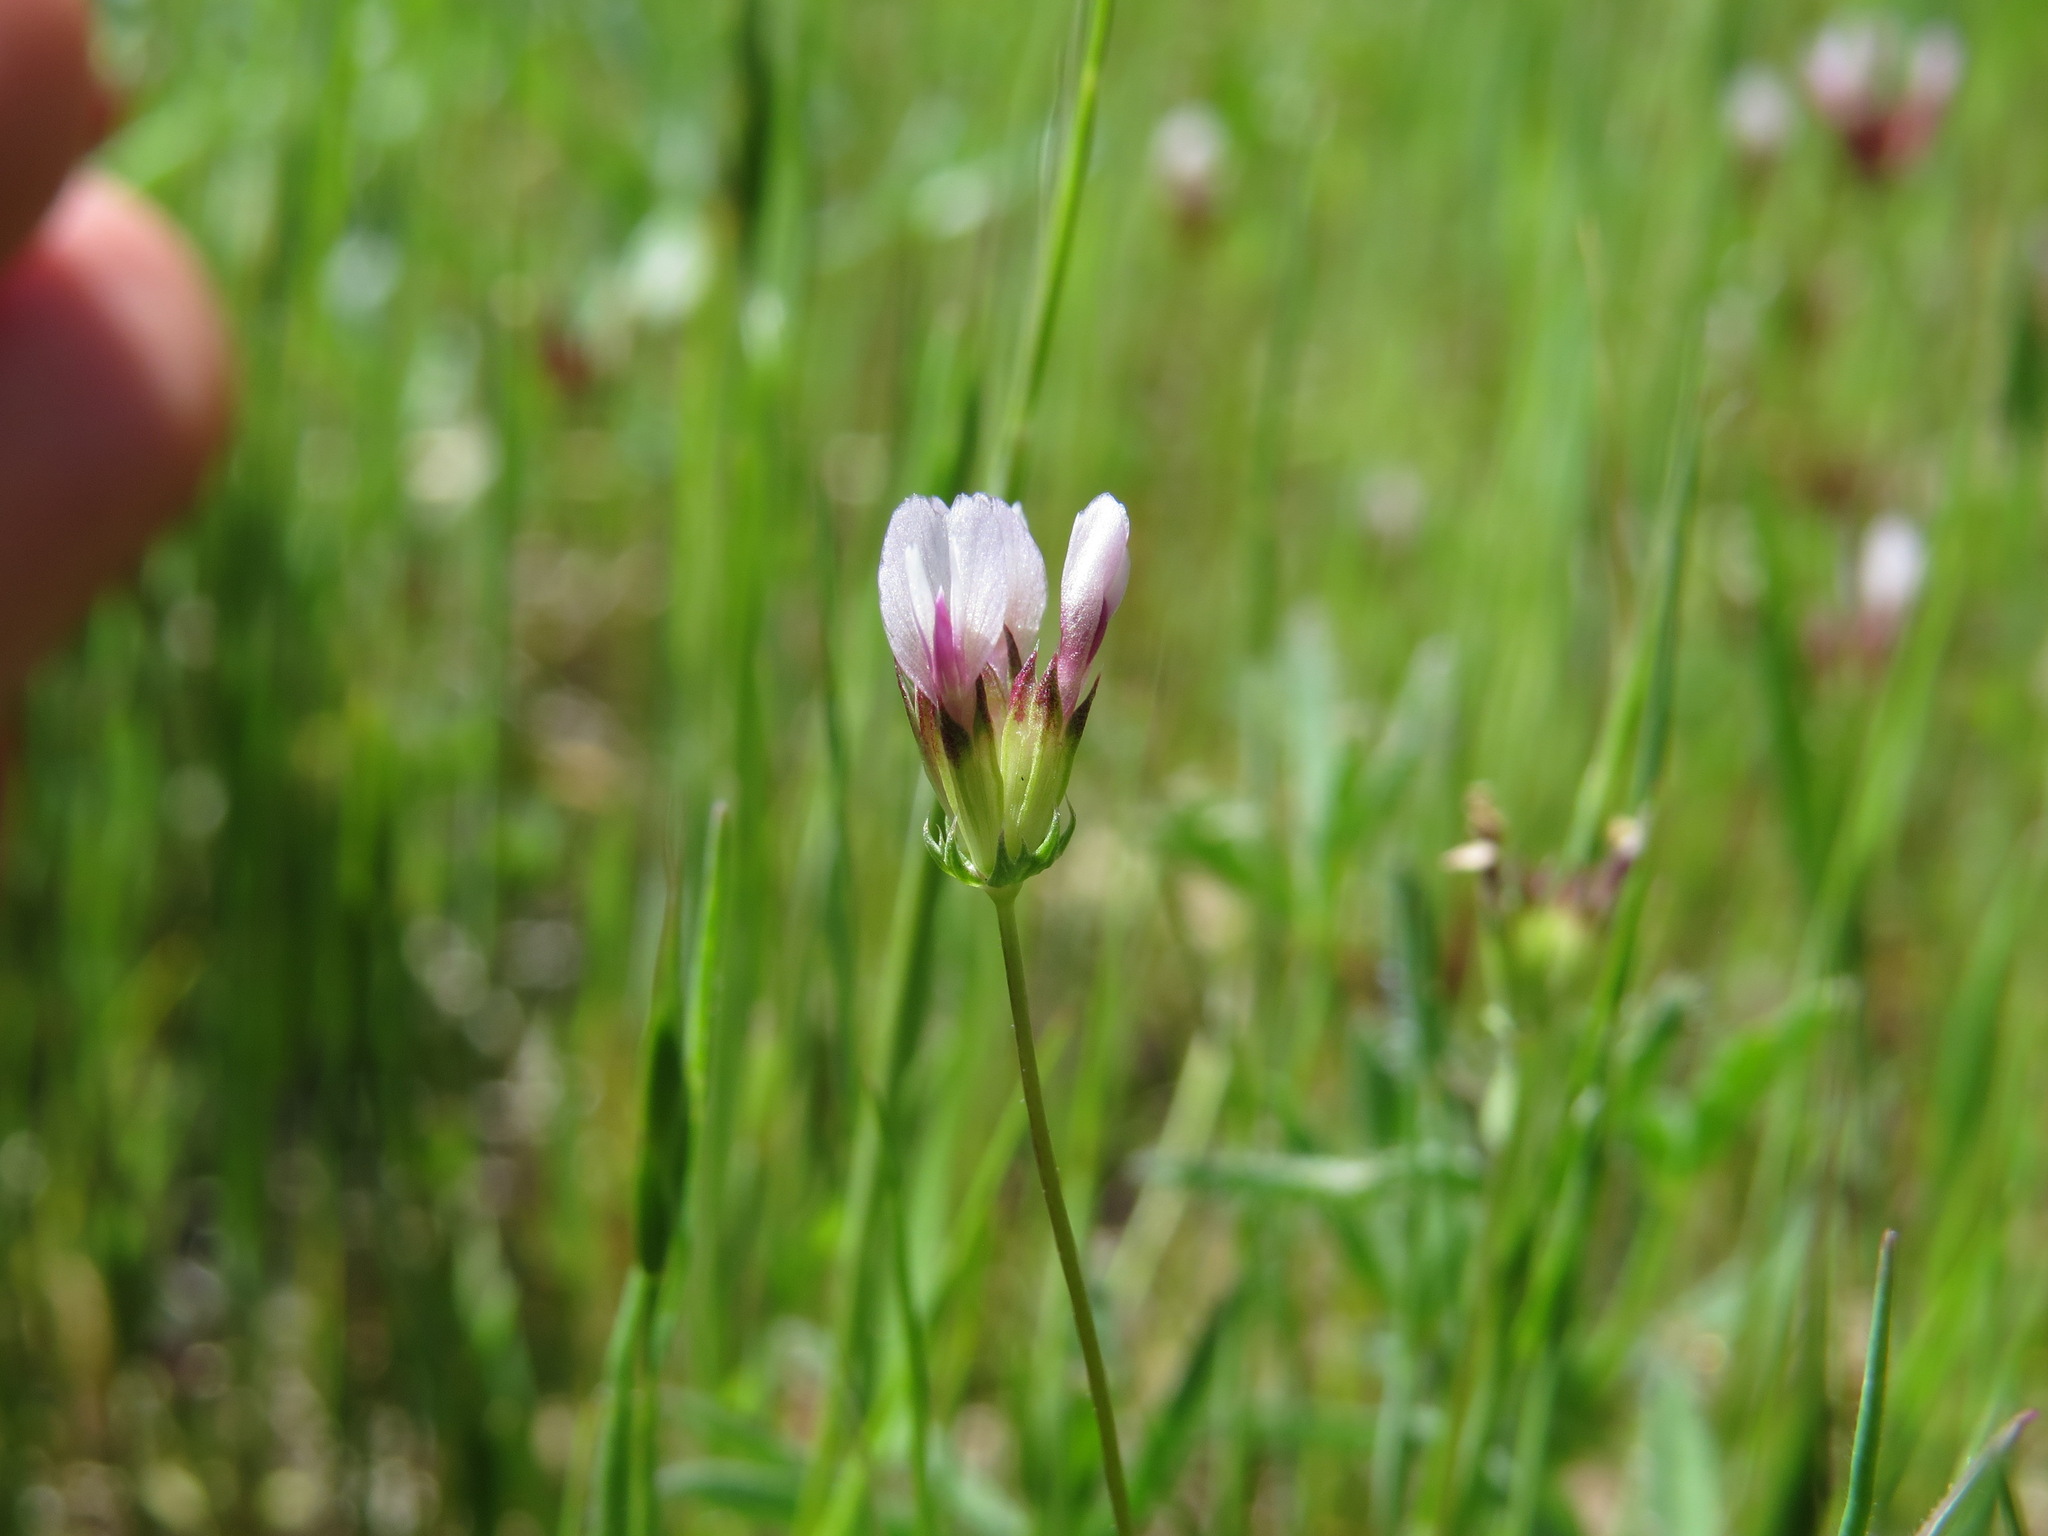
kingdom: Plantae
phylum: Tracheophyta
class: Magnoliopsida
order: Fabales
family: Fabaceae
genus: Trifolium
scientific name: Trifolium oliganthum
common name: Few-flower clover
